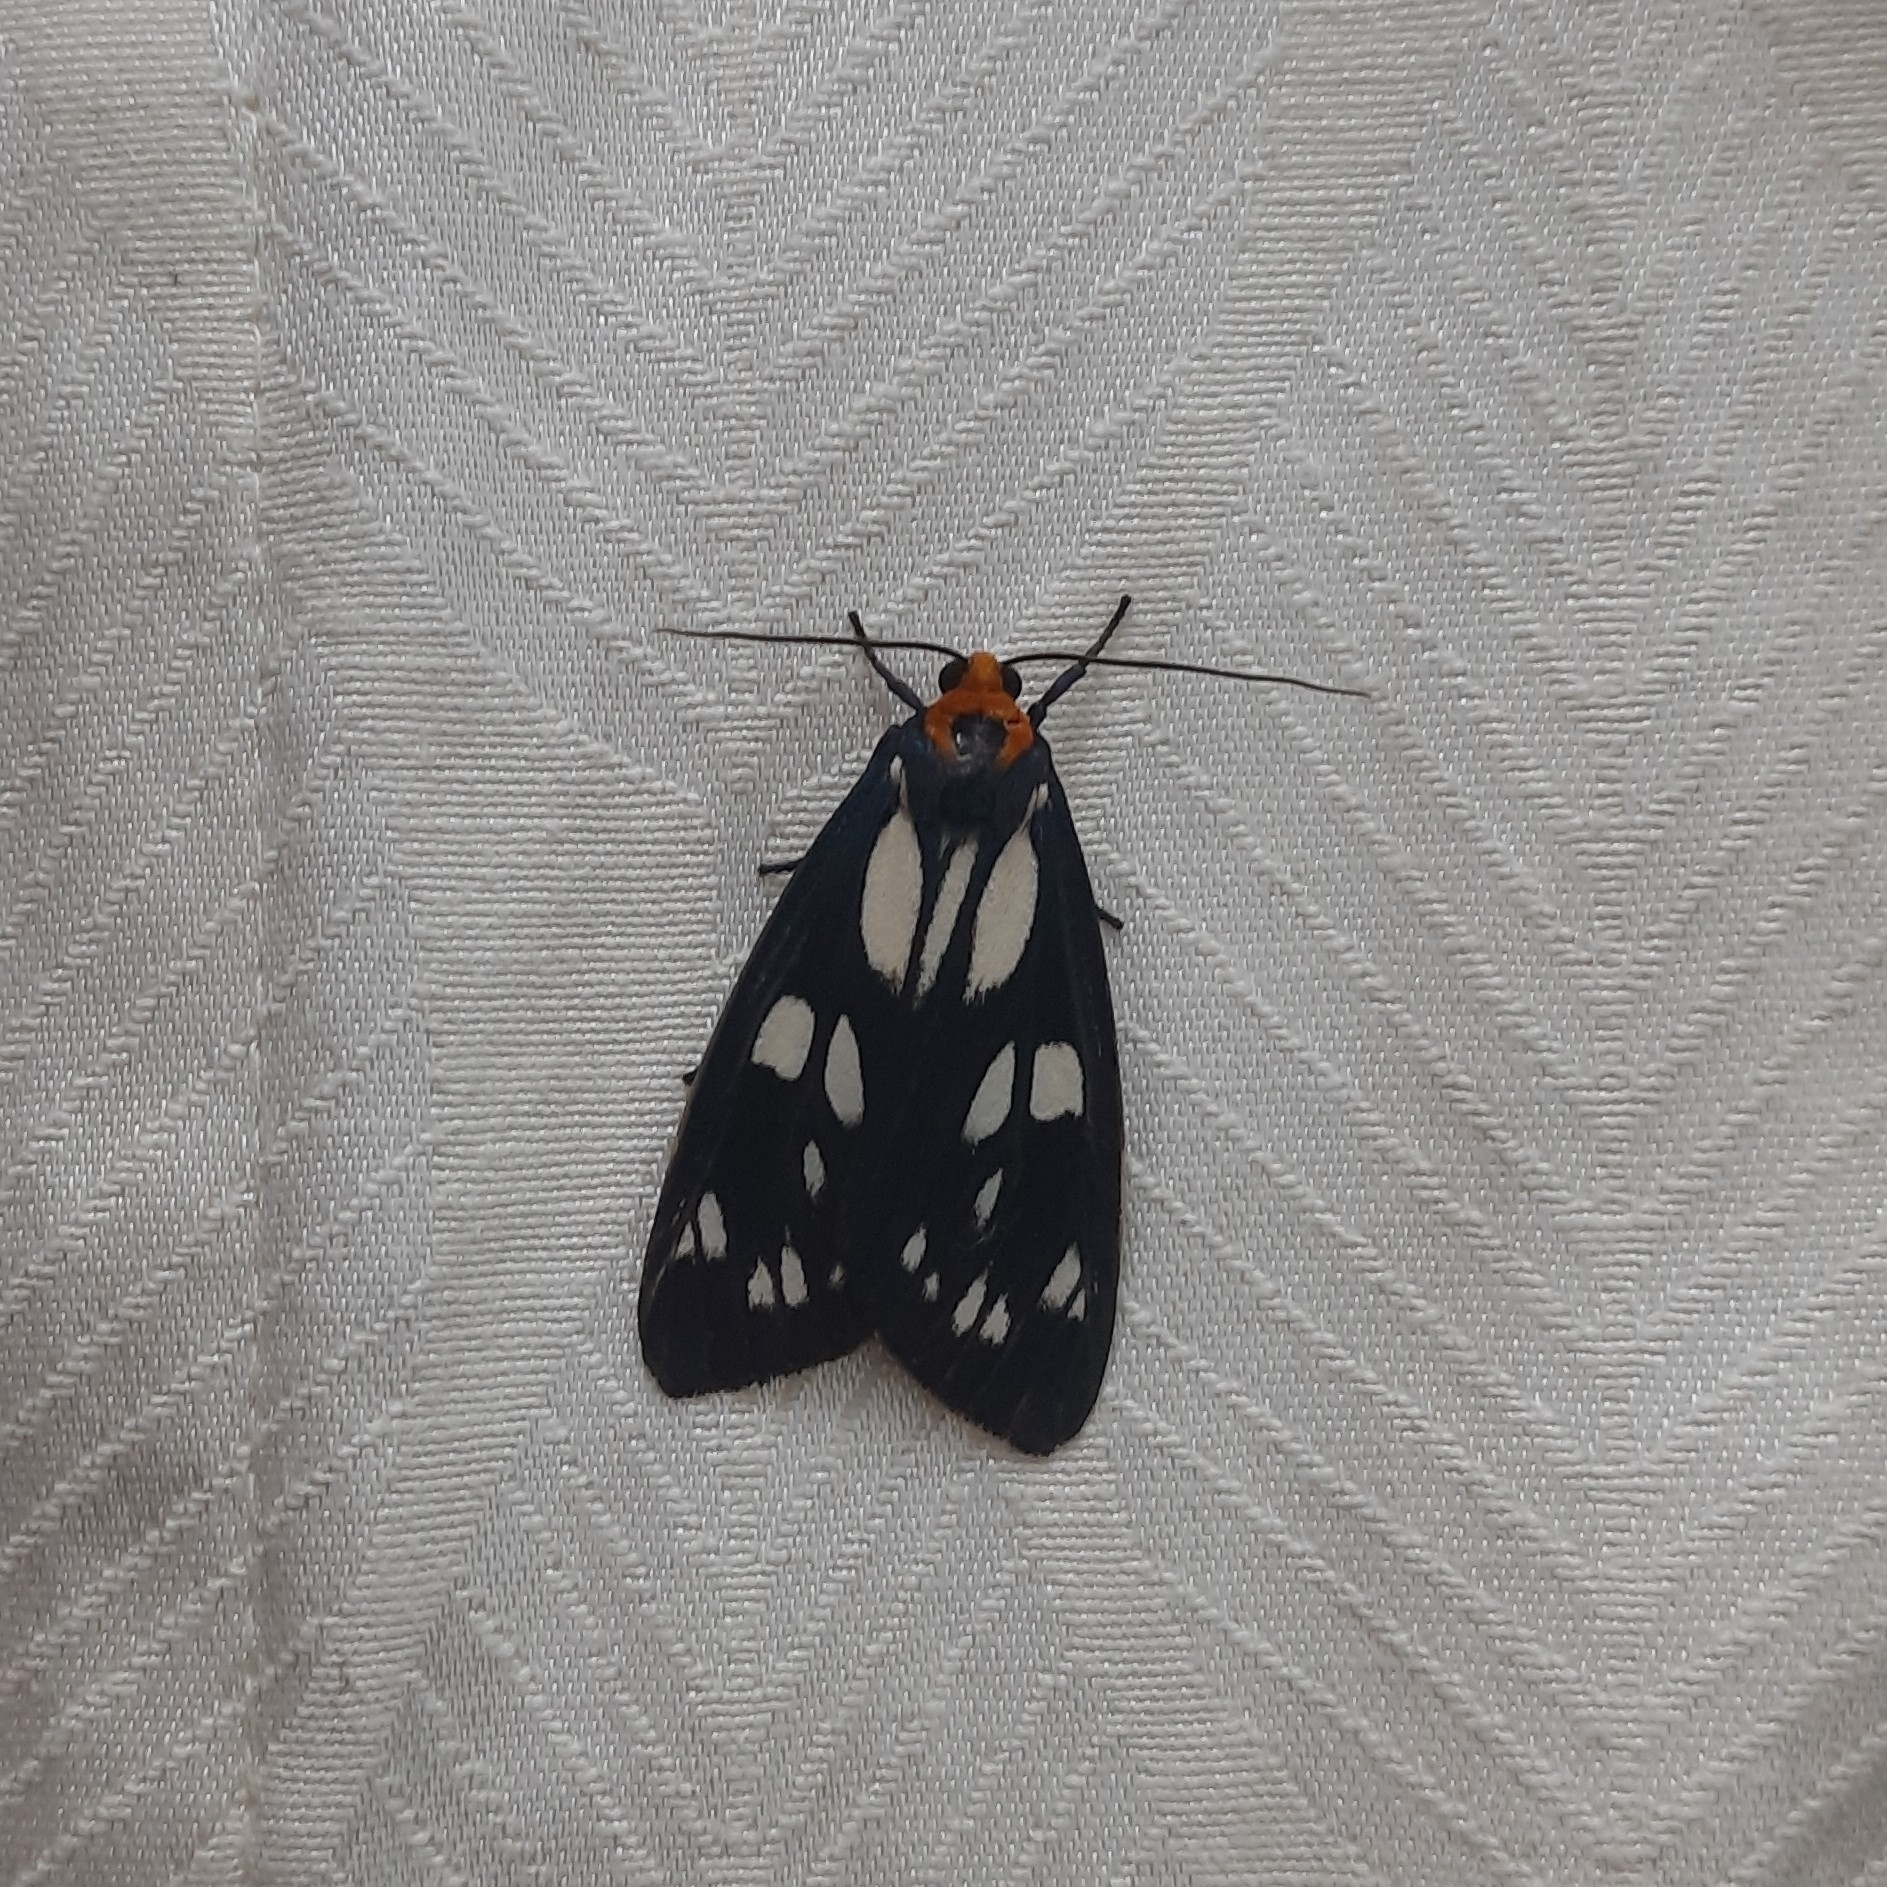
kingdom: Animalia
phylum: Arthropoda
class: Insecta
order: Lepidoptera
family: Erebidae
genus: Macrobrochis
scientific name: Macrobrochis gigas
